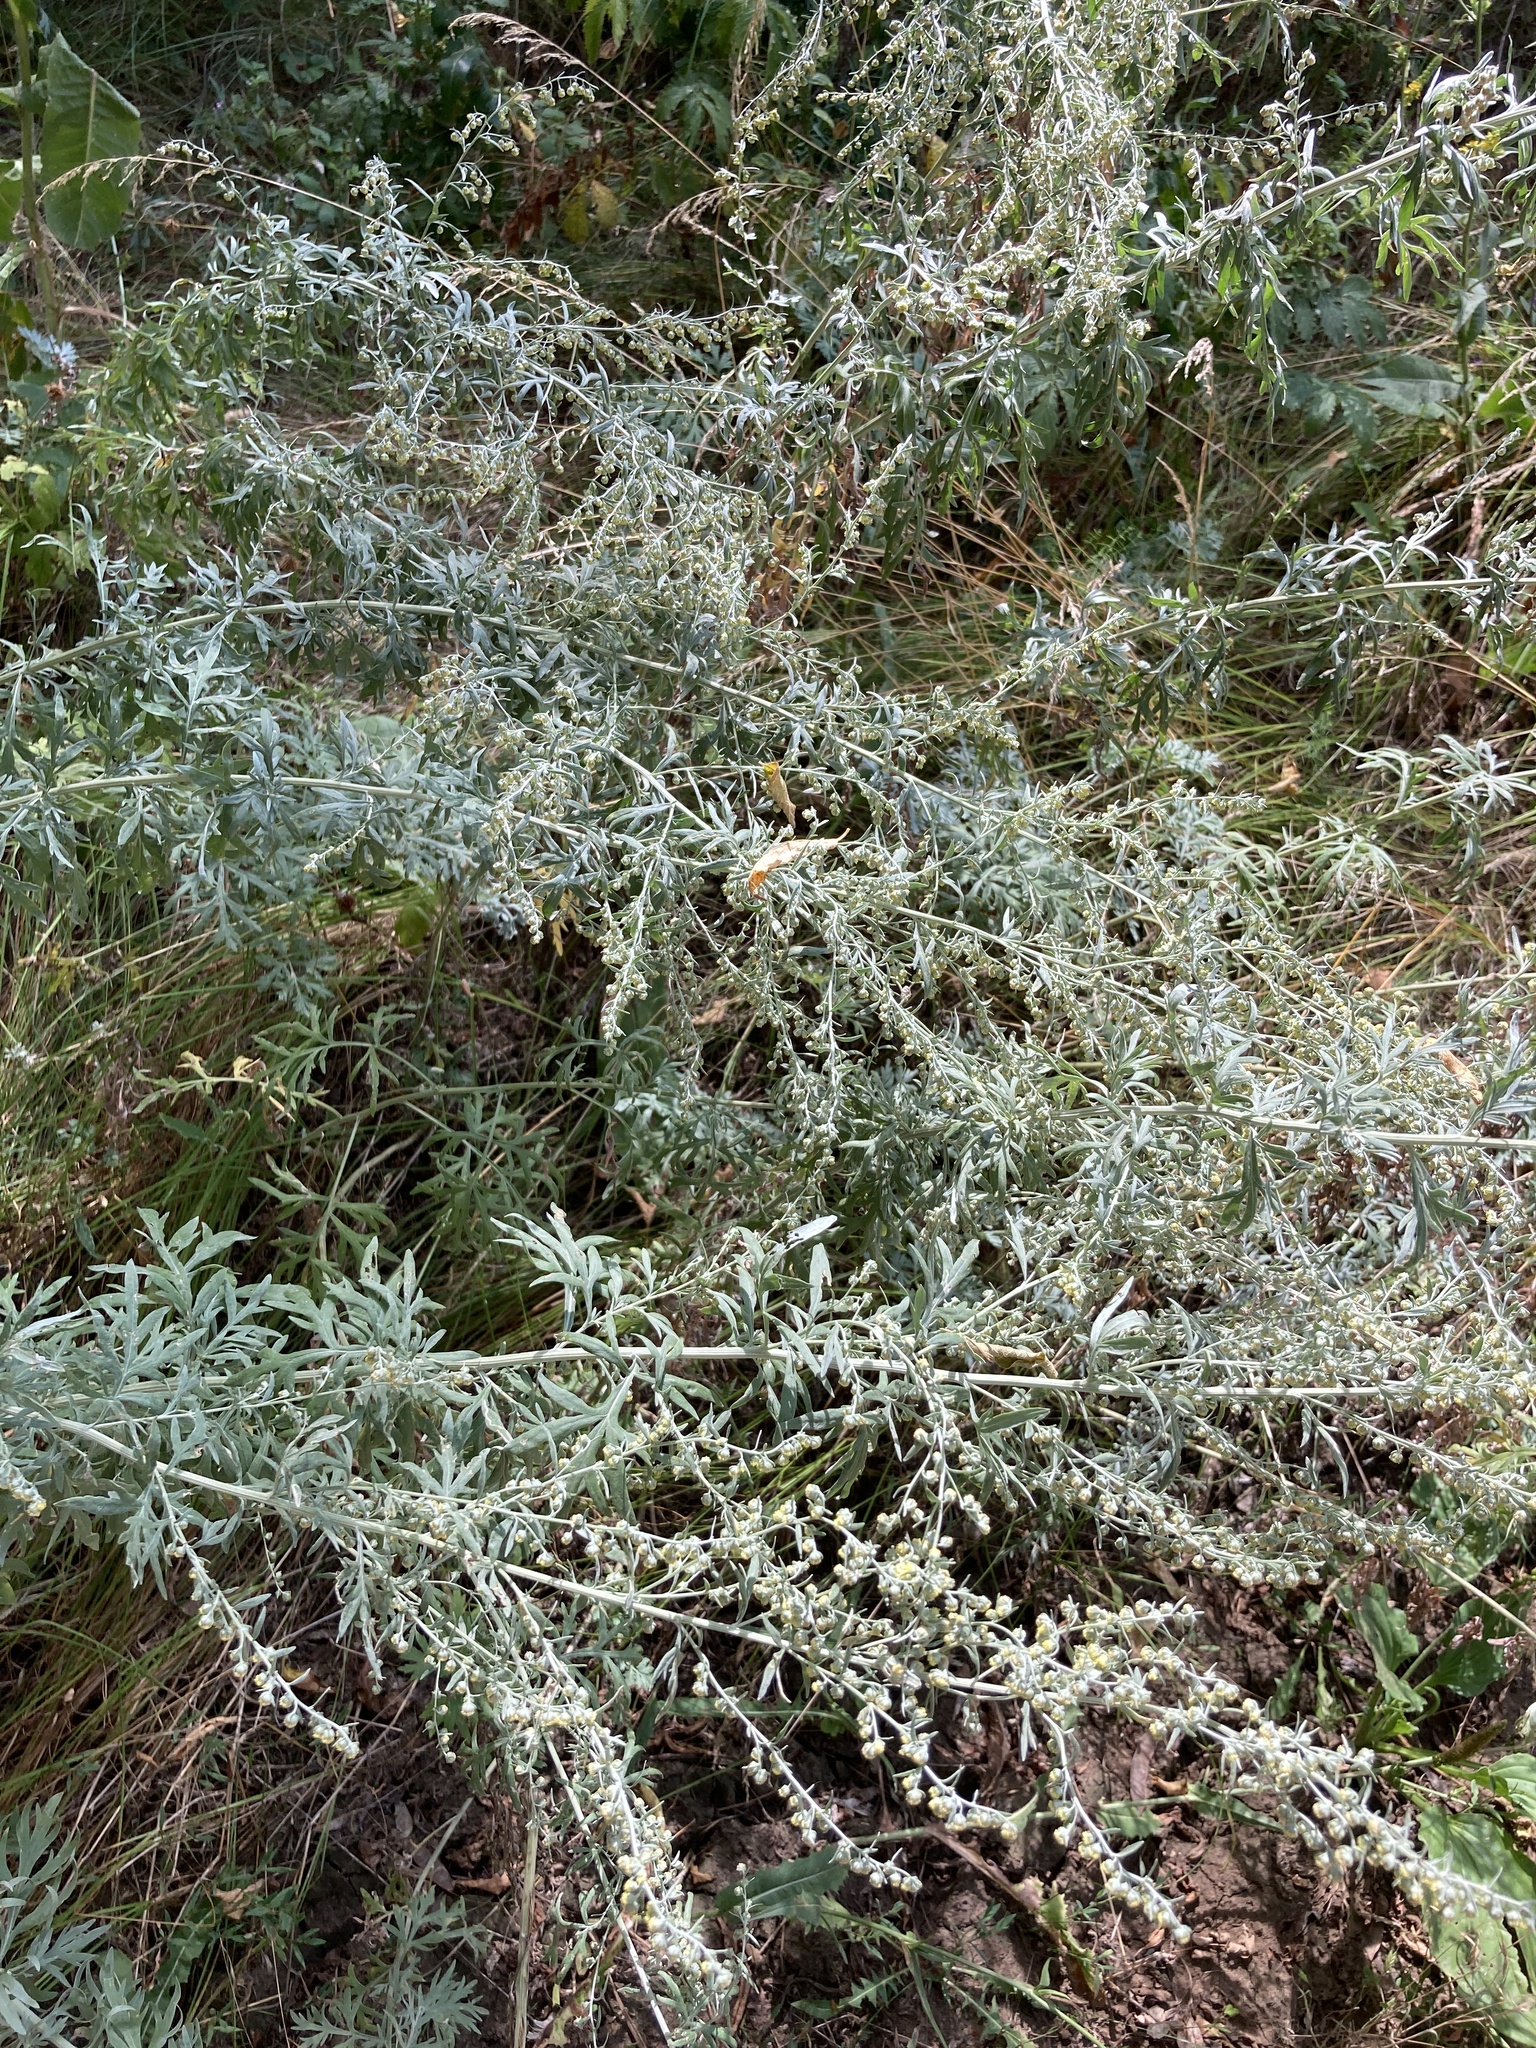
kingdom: Plantae
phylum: Tracheophyta
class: Magnoliopsida
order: Asterales
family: Asteraceae
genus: Artemisia
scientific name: Artemisia absinthium
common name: Wormwood
